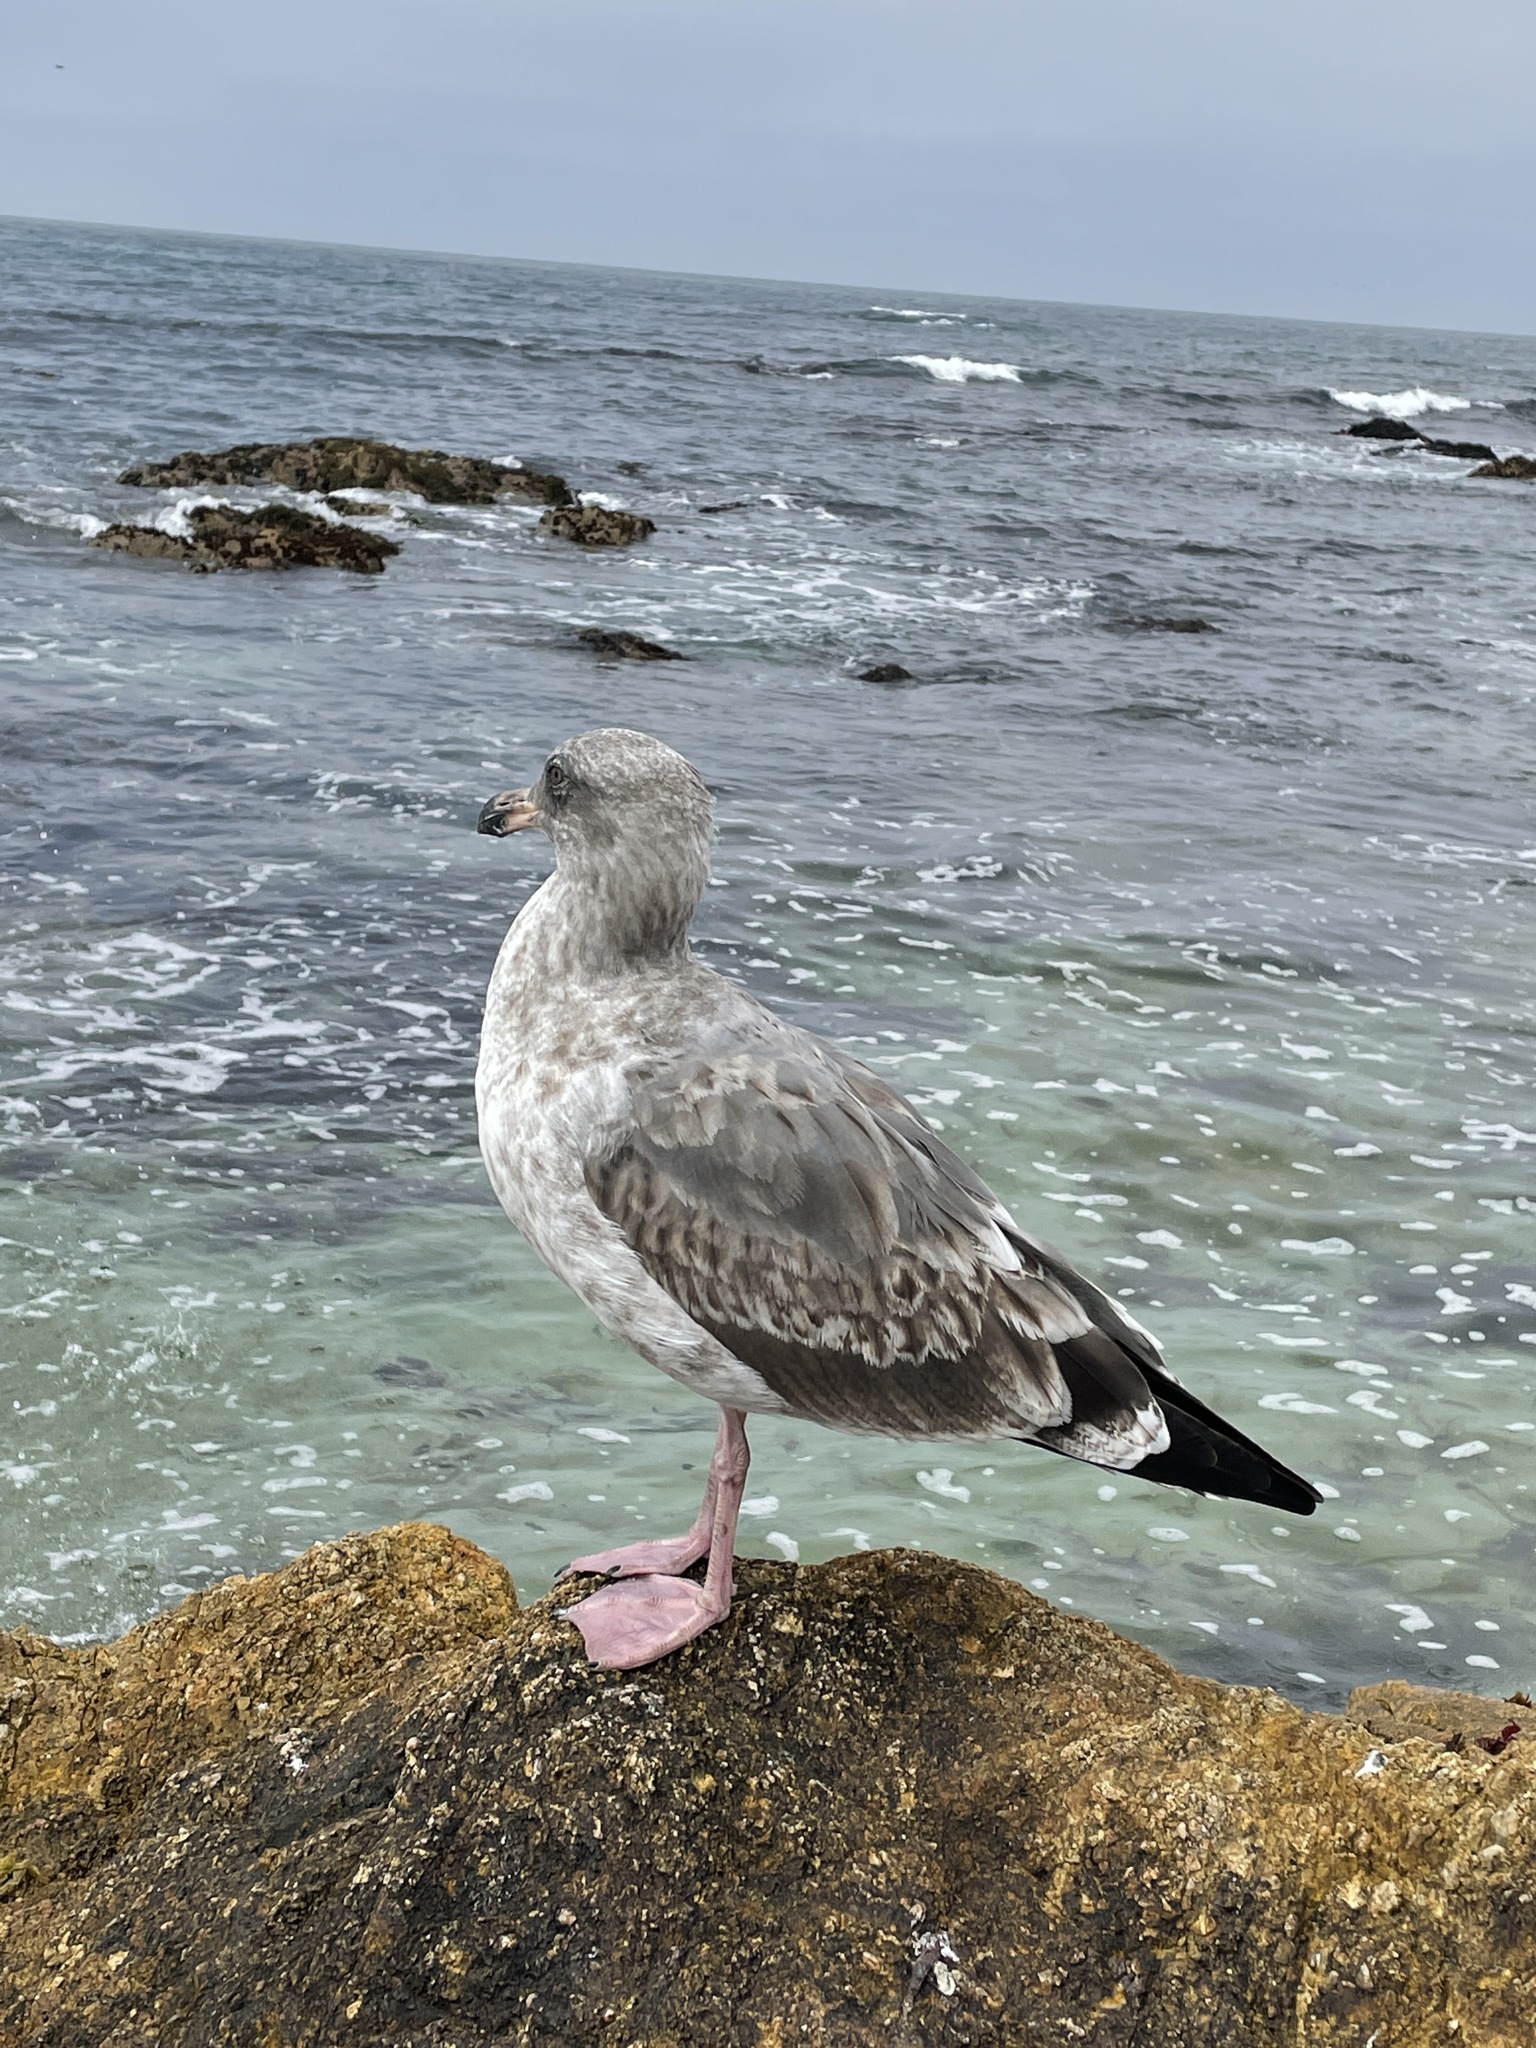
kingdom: Animalia
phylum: Chordata
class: Aves
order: Charadriiformes
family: Laridae
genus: Larus
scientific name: Larus occidentalis
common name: Western gull
